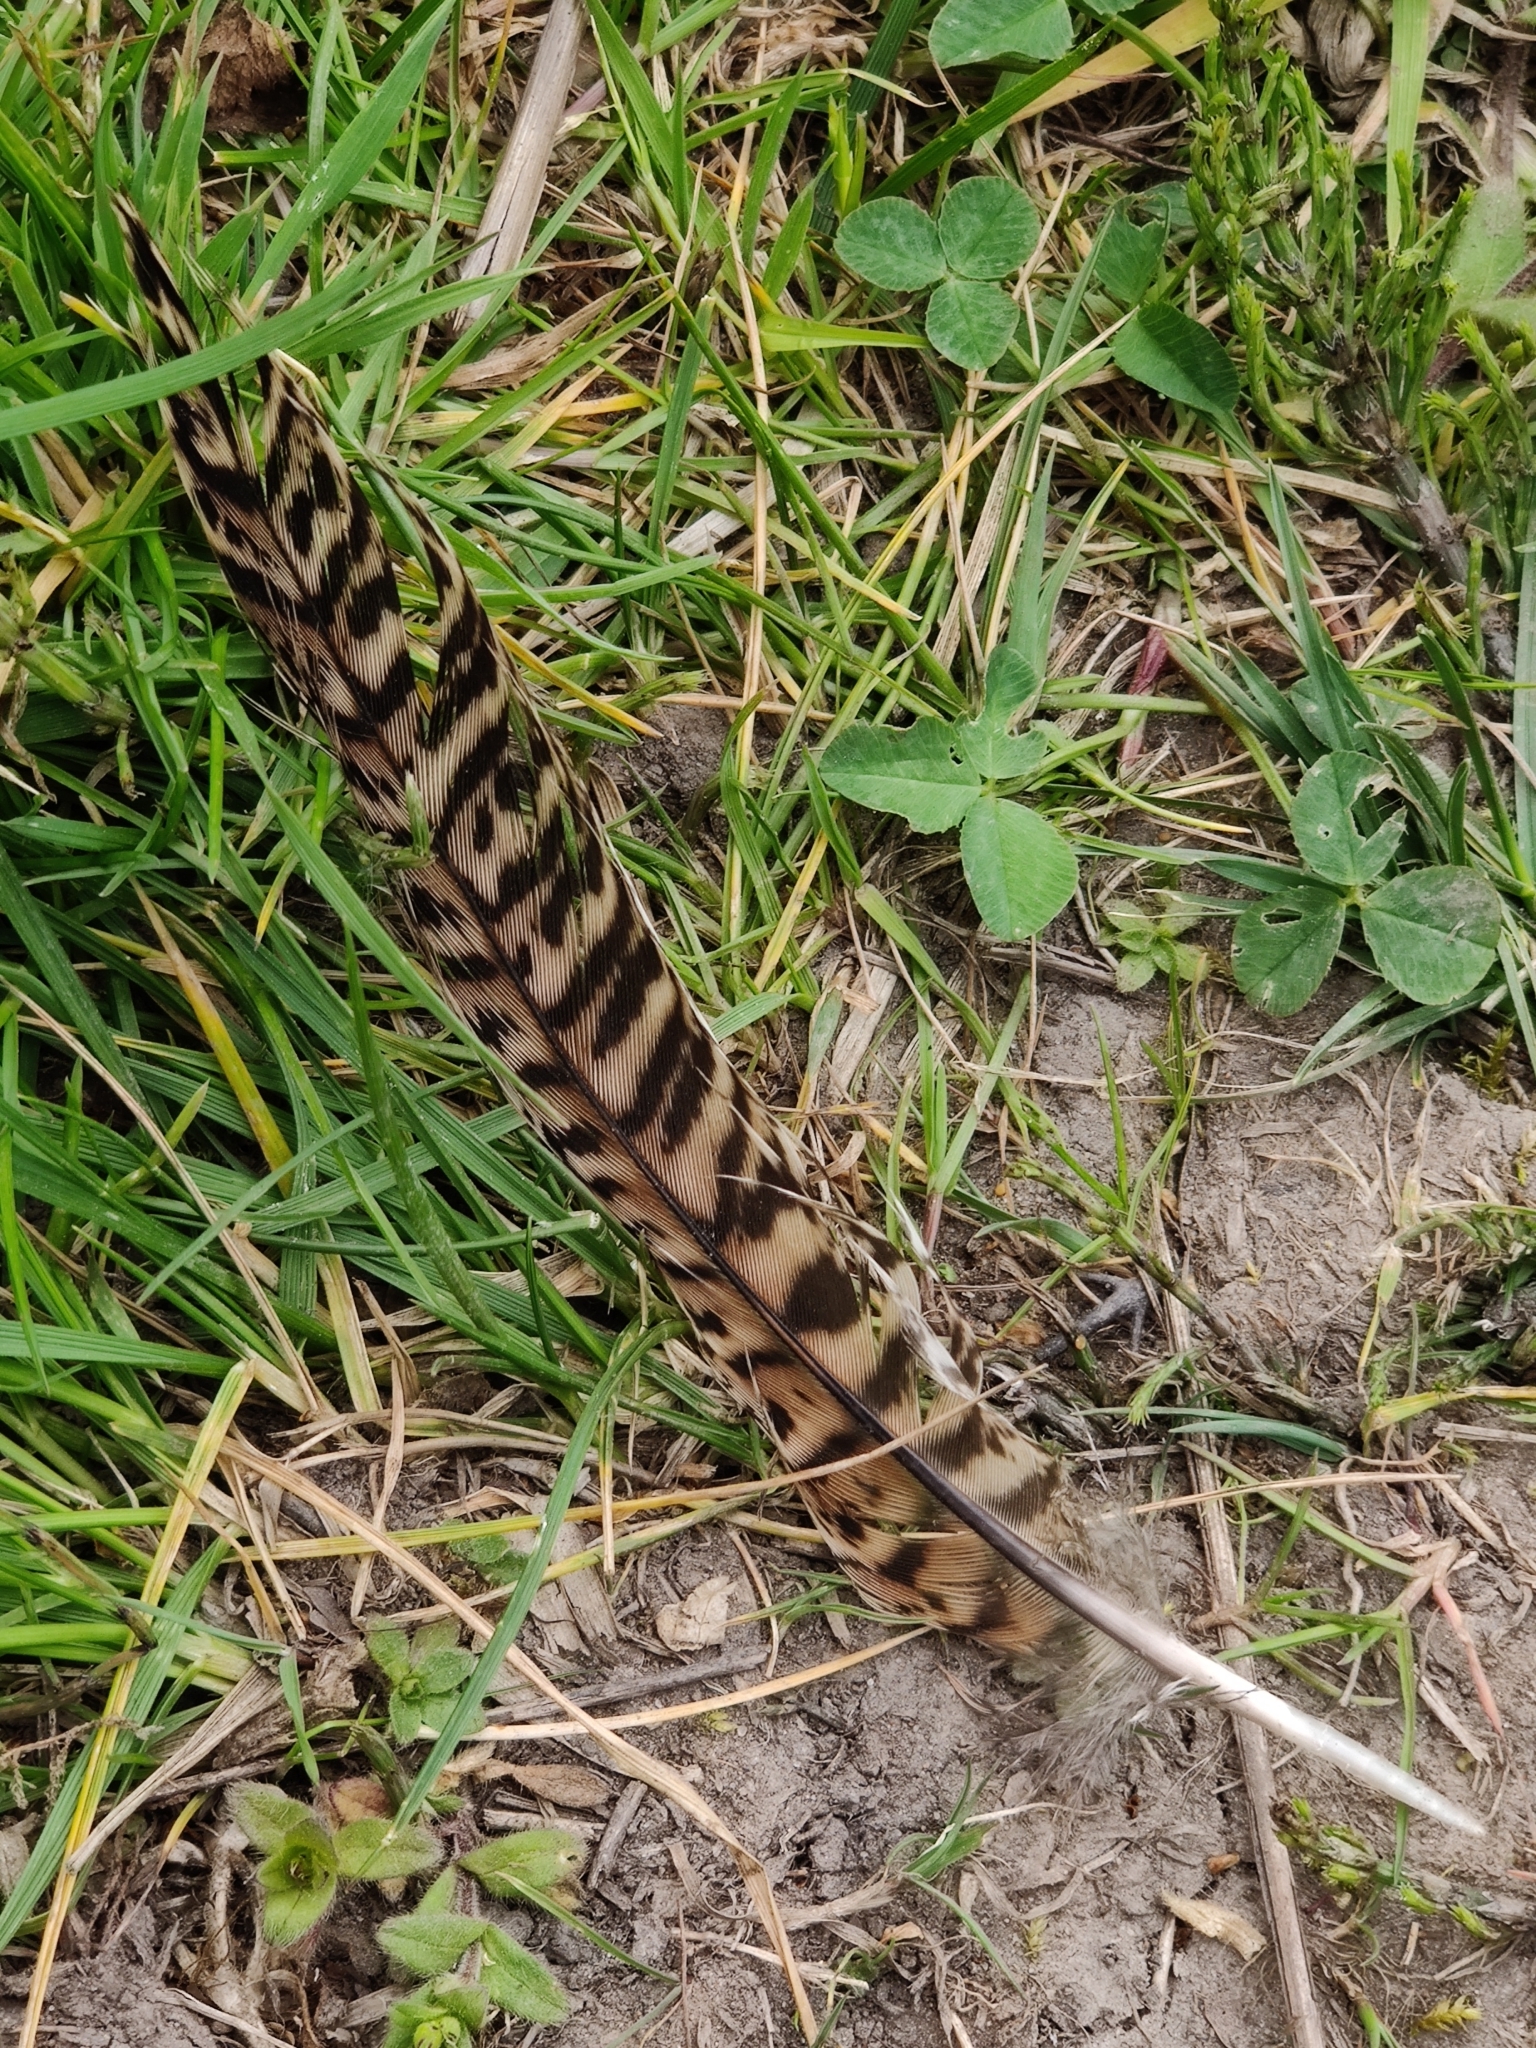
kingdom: Animalia
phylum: Chordata
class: Aves
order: Galliformes
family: Phasianidae
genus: Phasianus
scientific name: Phasianus colchicus
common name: Common pheasant
